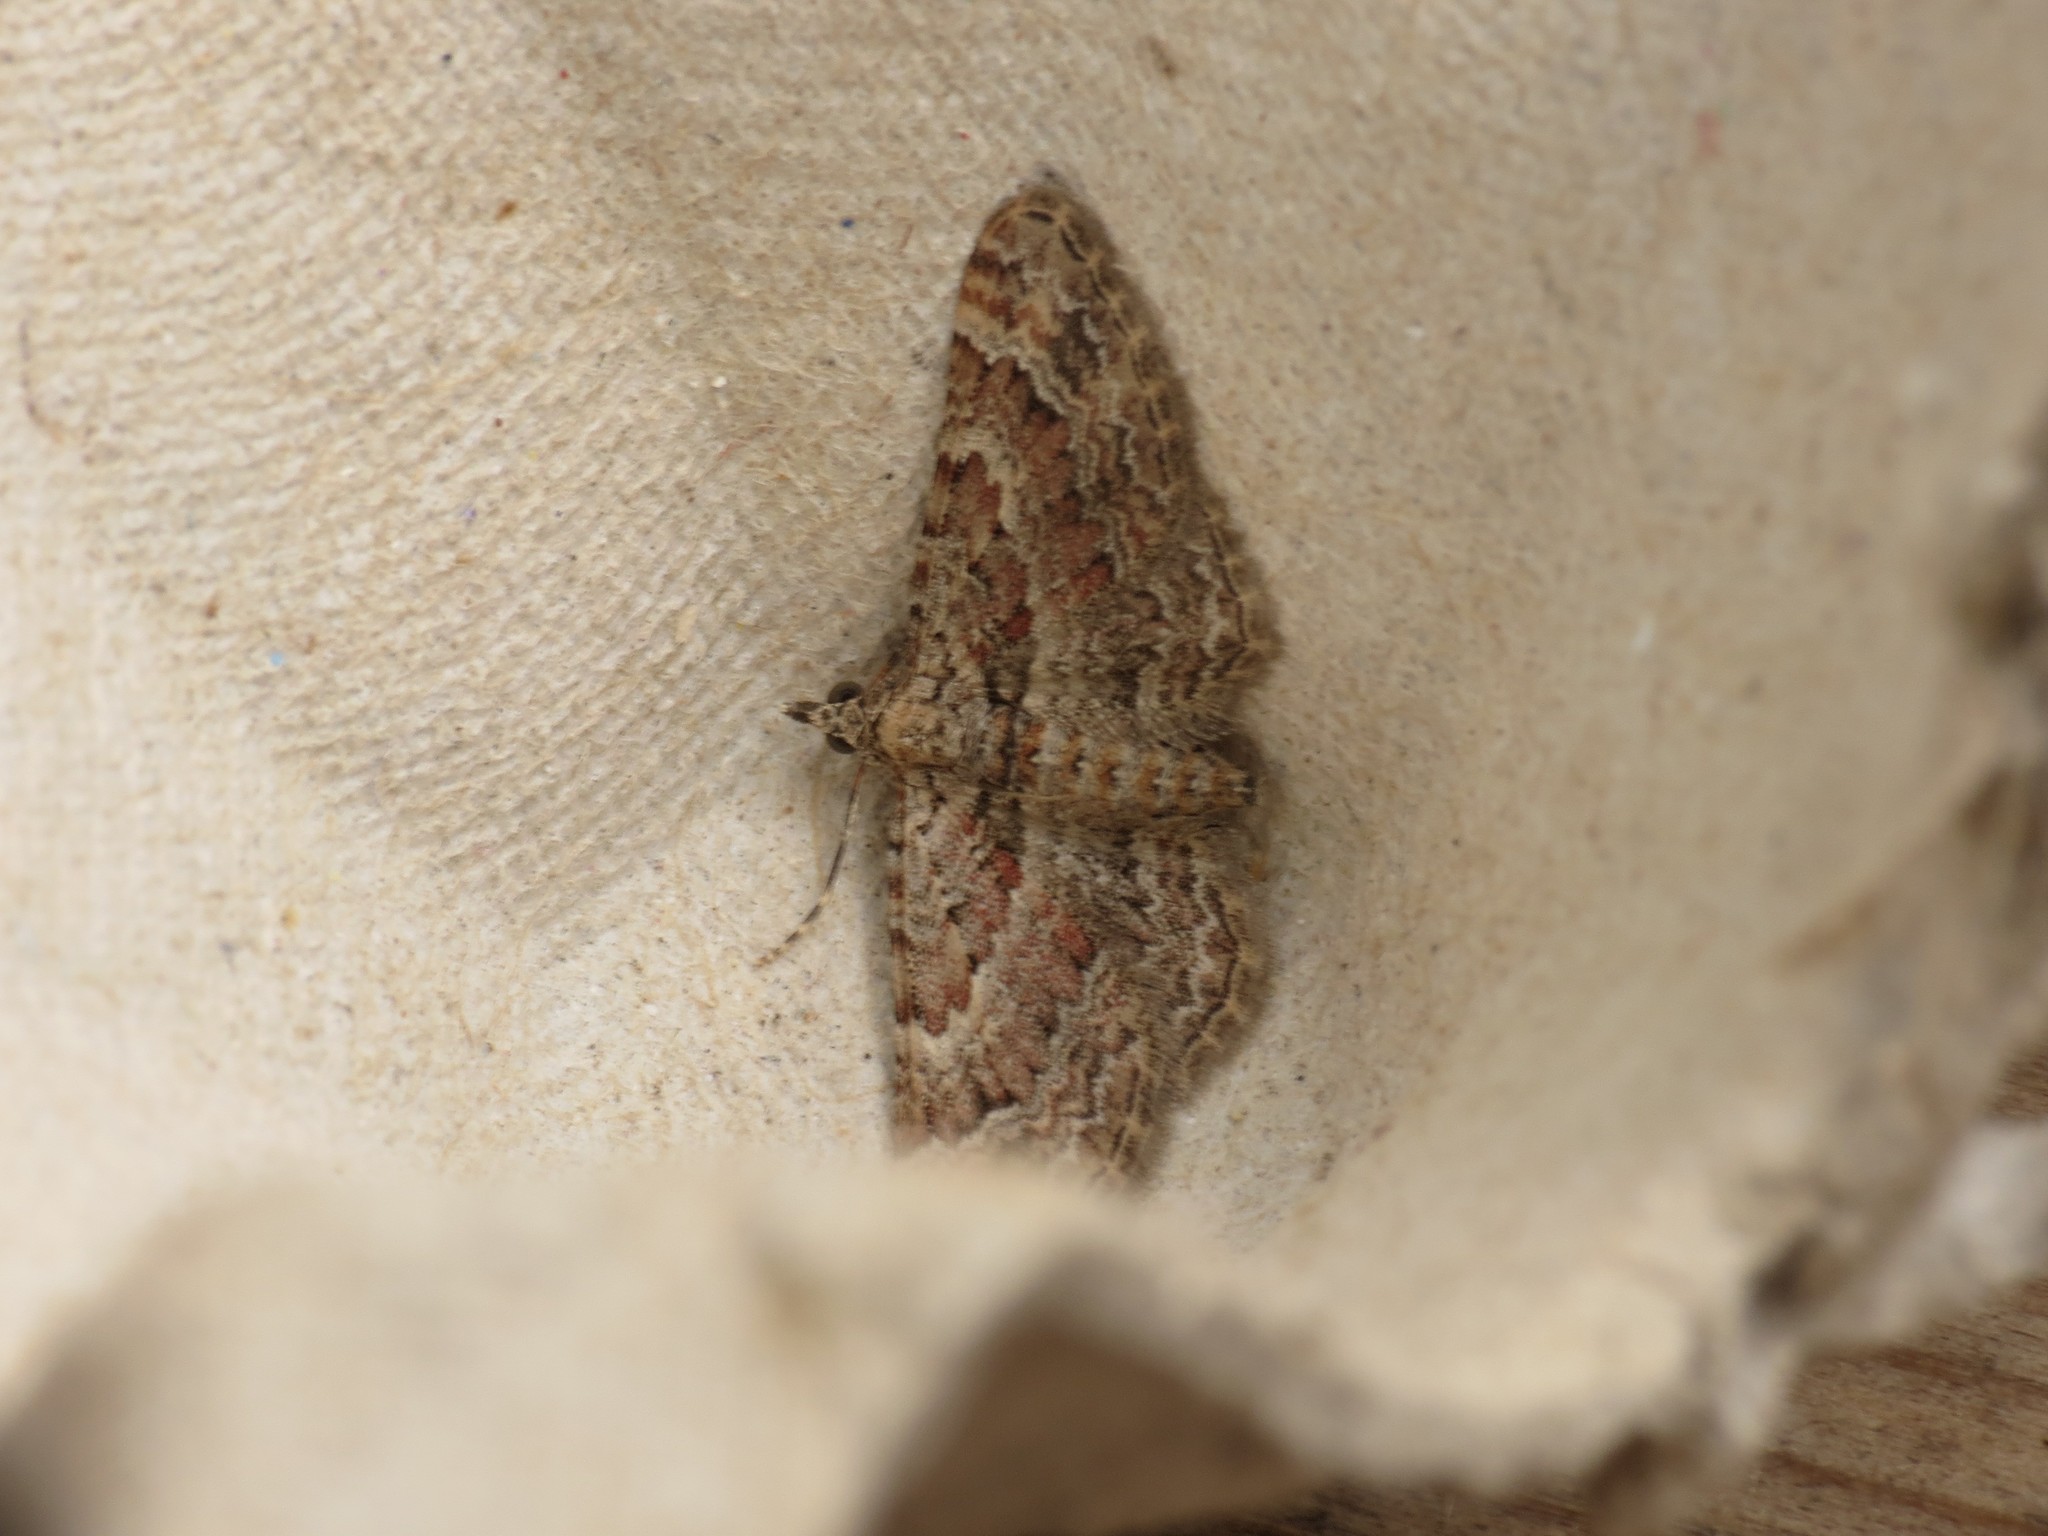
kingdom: Animalia
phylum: Arthropoda
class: Insecta
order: Lepidoptera
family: Geometridae
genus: Gymnoscelis
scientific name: Gymnoscelis rufifasciata
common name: Double-striped pug
